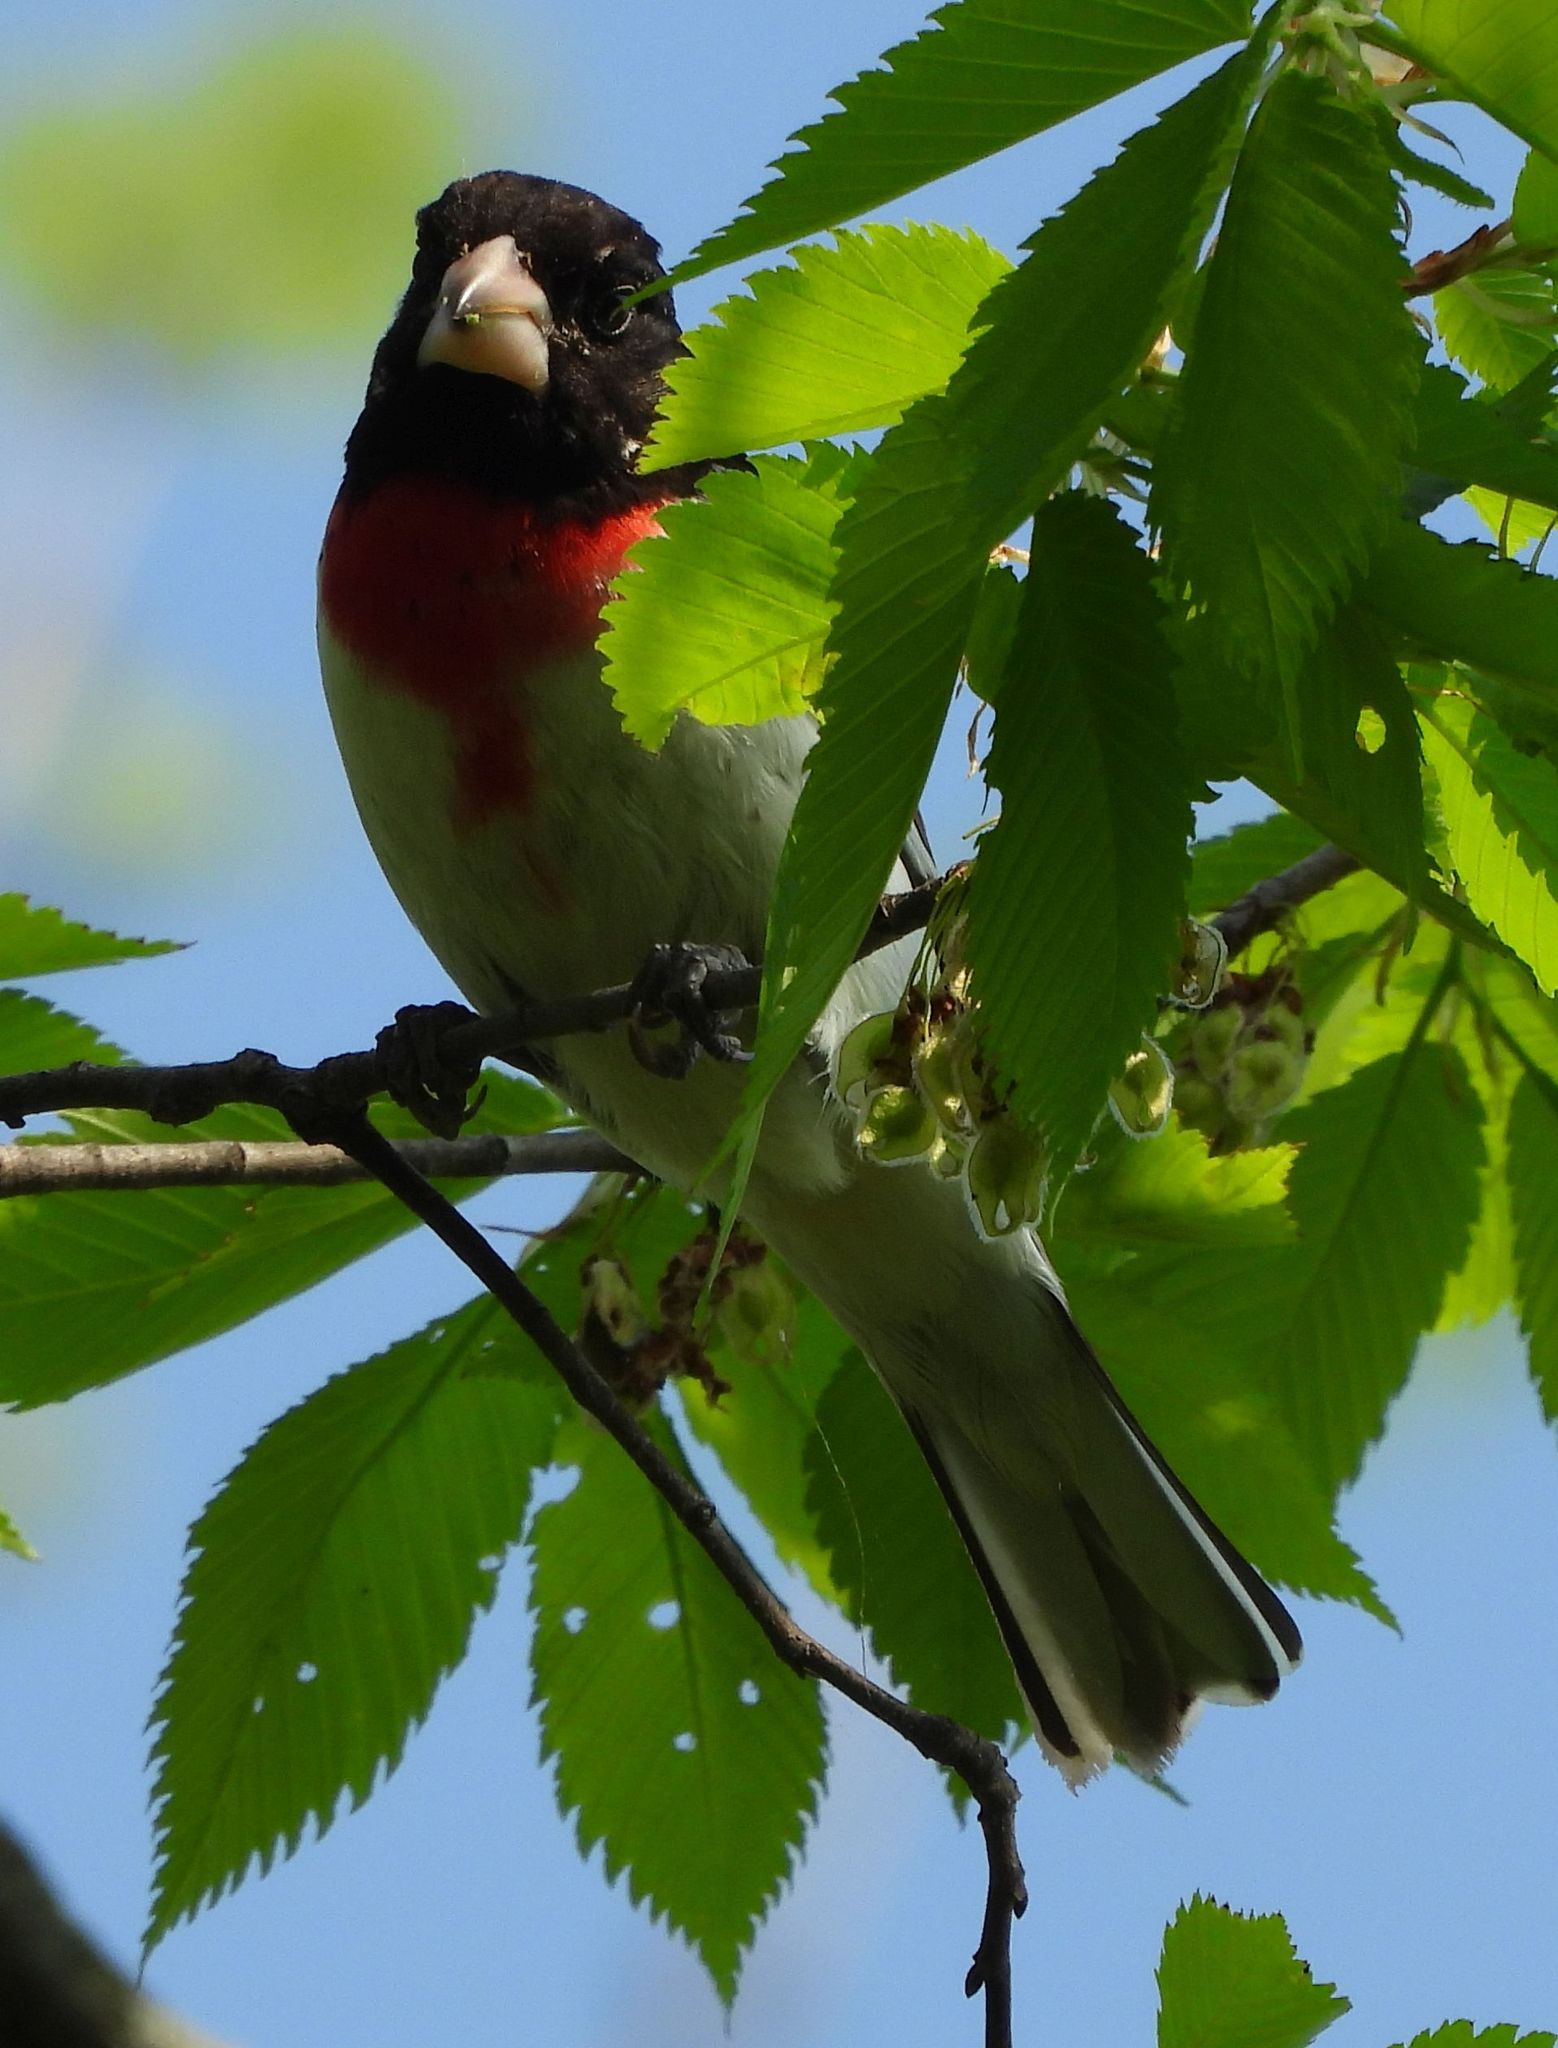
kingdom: Animalia
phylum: Chordata
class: Aves
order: Passeriformes
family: Cardinalidae
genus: Pheucticus
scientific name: Pheucticus ludovicianus
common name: Rose-breasted grosbeak
